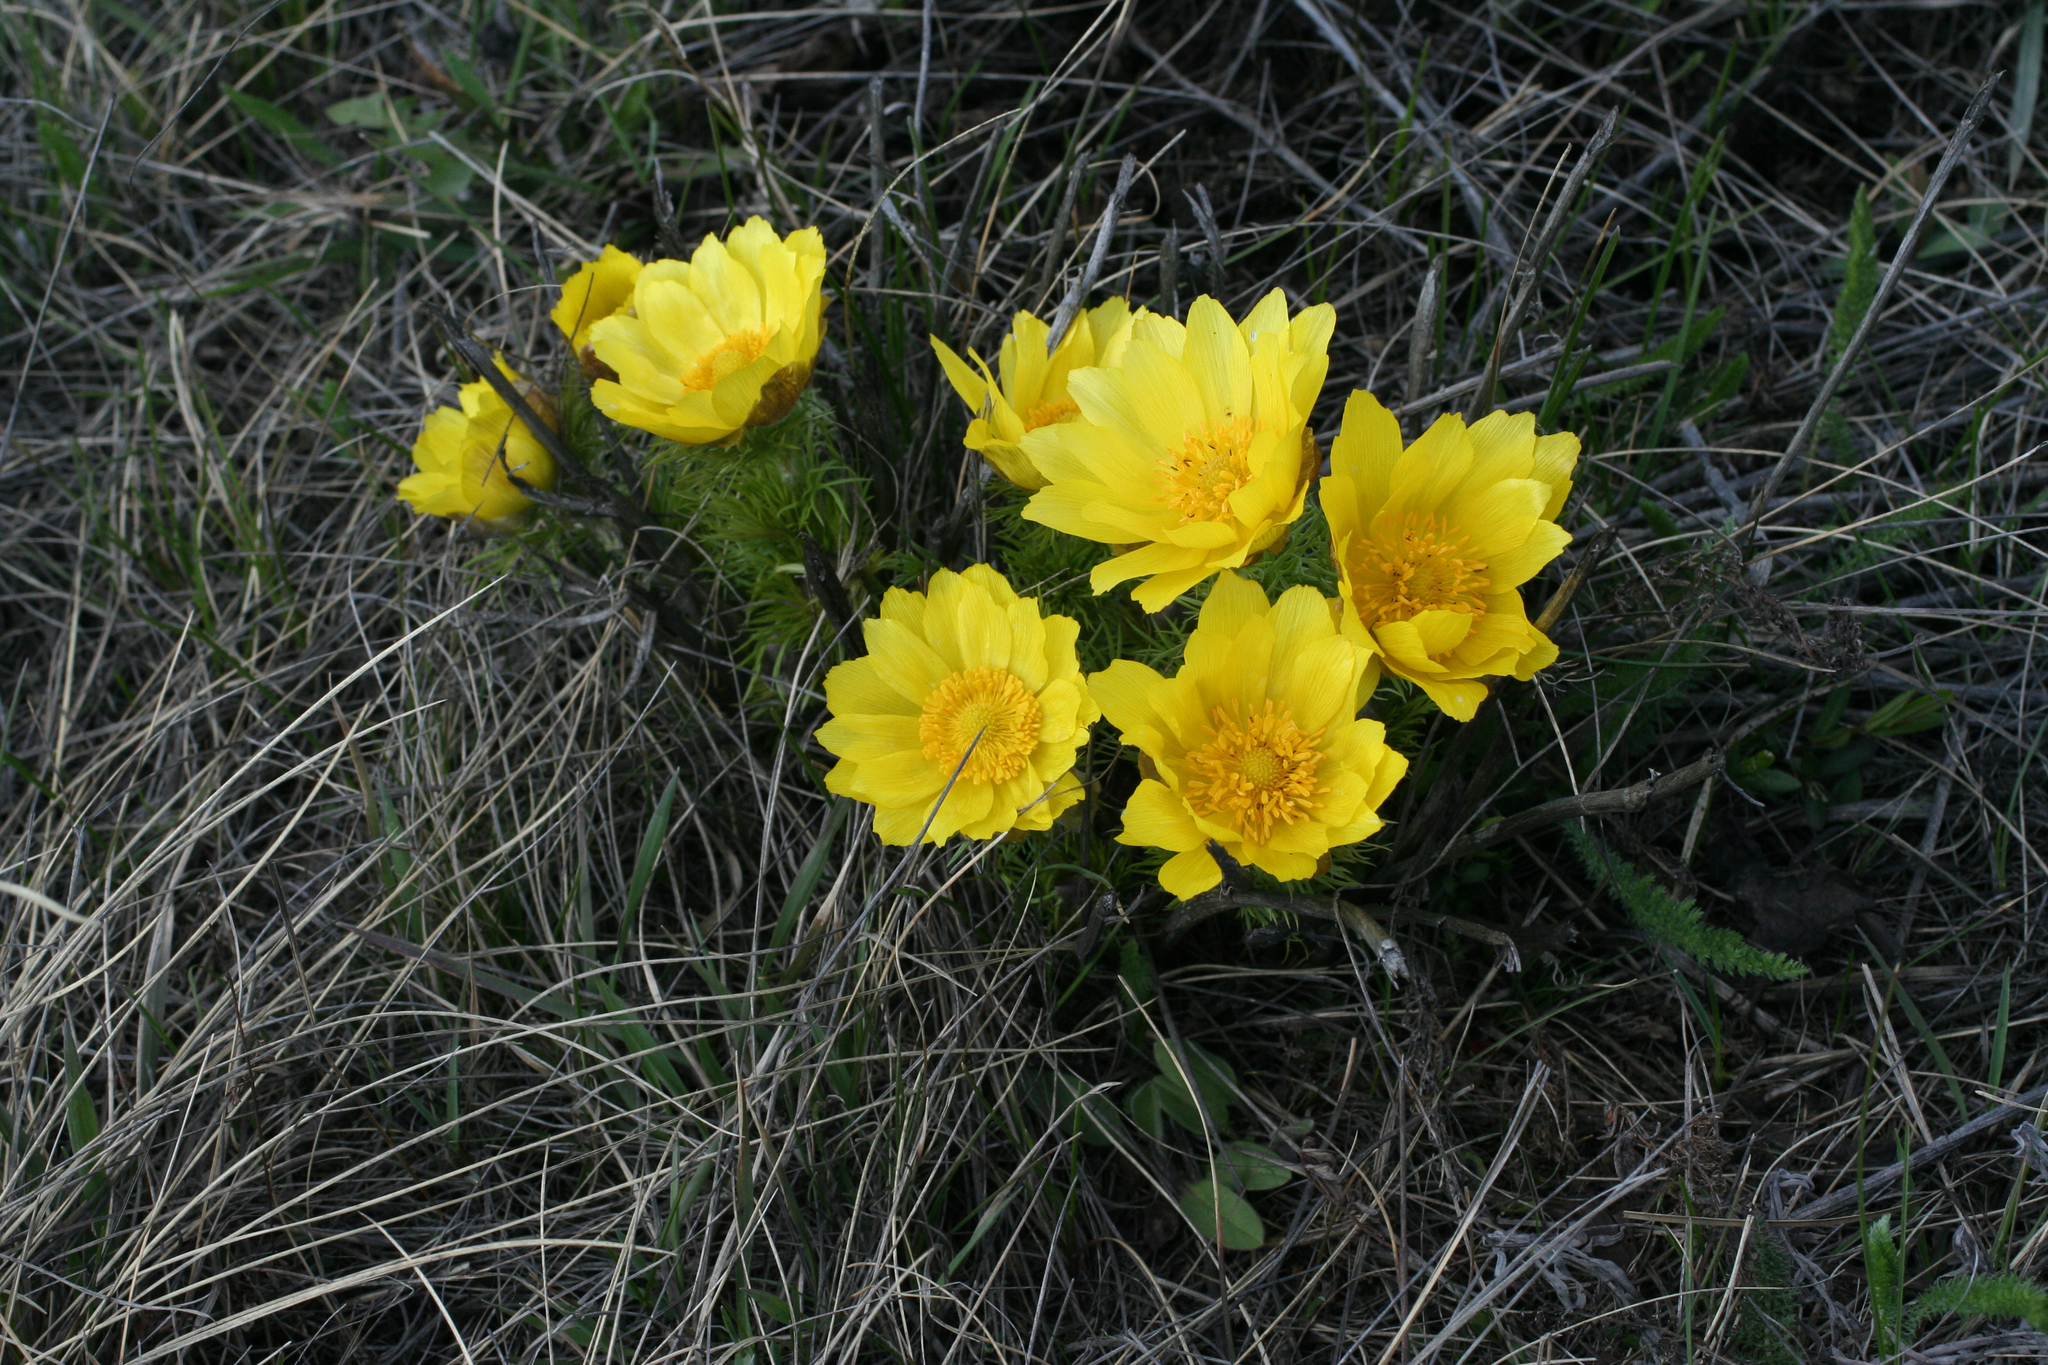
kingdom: Plantae
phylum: Tracheophyta
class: Magnoliopsida
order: Ranunculales
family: Ranunculaceae
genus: Adonis
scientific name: Adonis vernalis
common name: Yellow pheasants-eye
